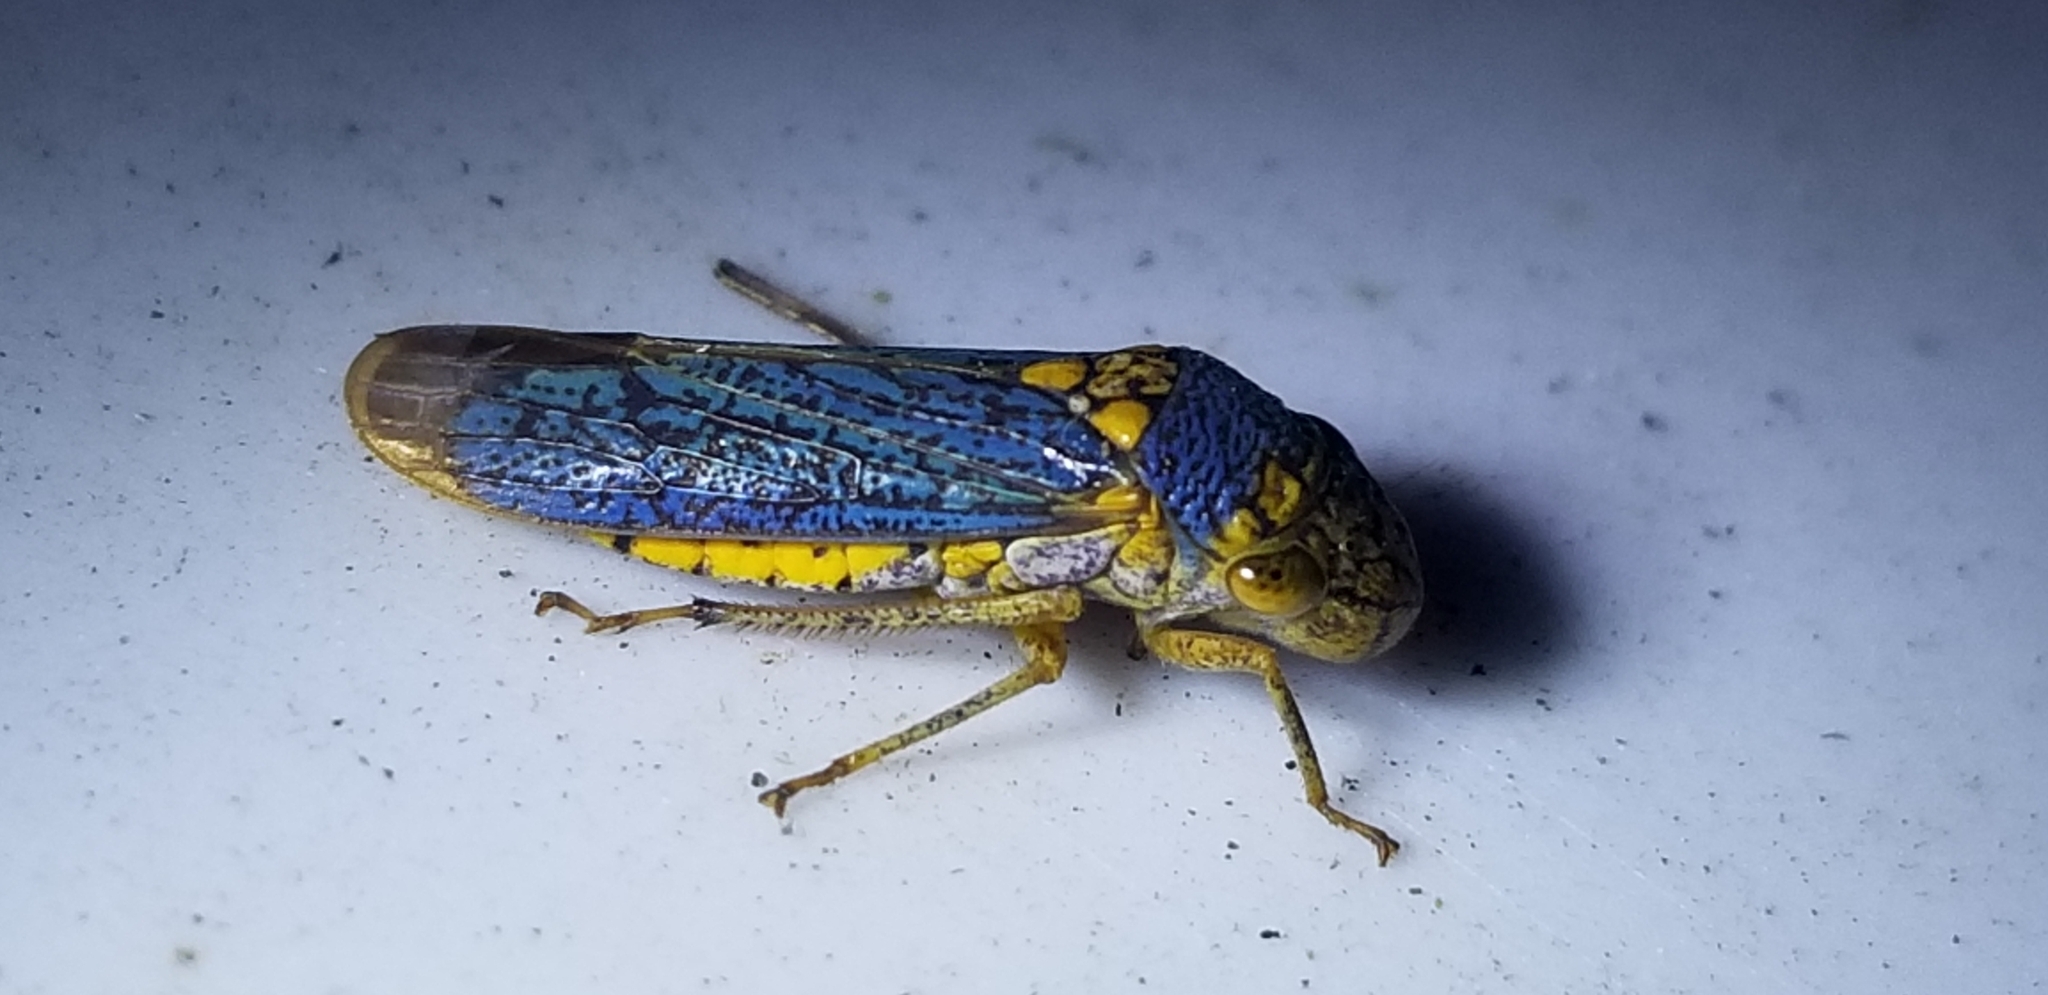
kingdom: Animalia
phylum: Arthropoda
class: Insecta
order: Hemiptera
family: Cicadellidae
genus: Oncometopia
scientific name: Oncometopia orbona
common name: Broad-headed sharpshooter
